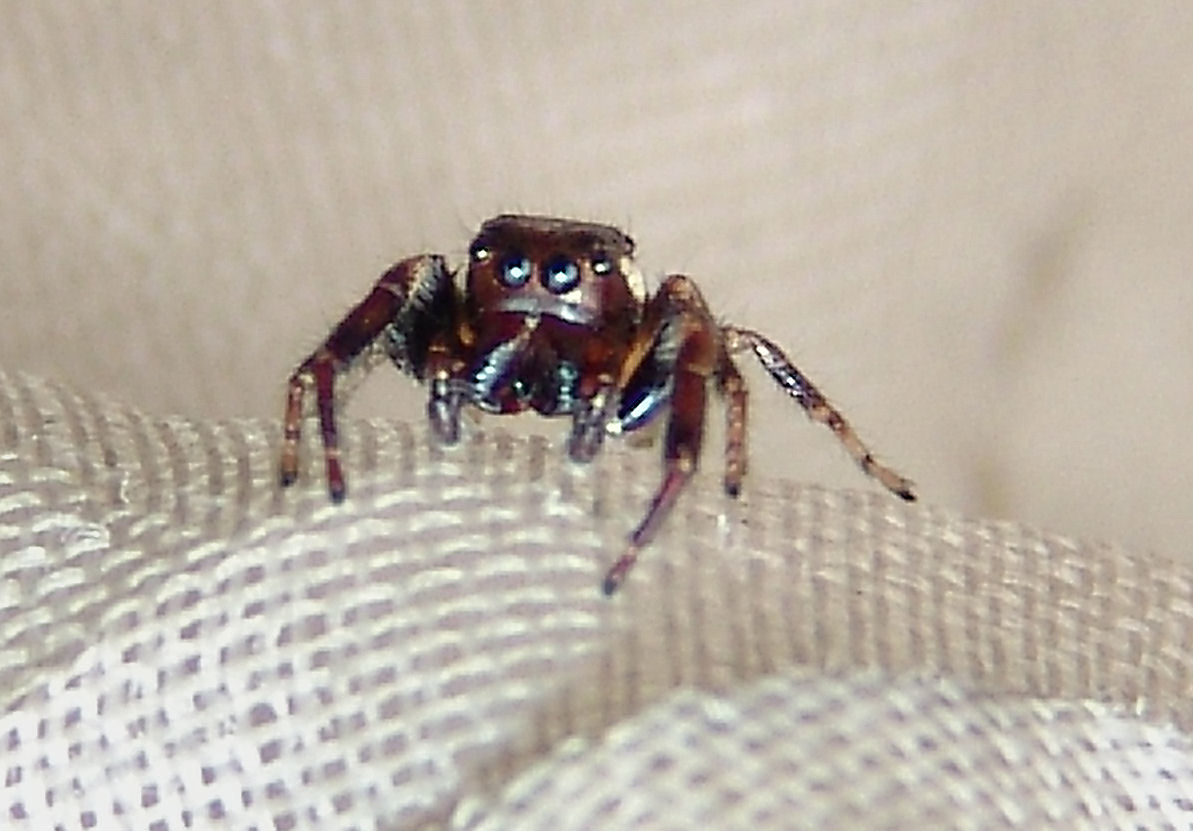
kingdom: Animalia
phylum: Arthropoda
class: Arachnida
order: Araneae
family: Salticidae
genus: Eris
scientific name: Eris militaris
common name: Bronze jumper
